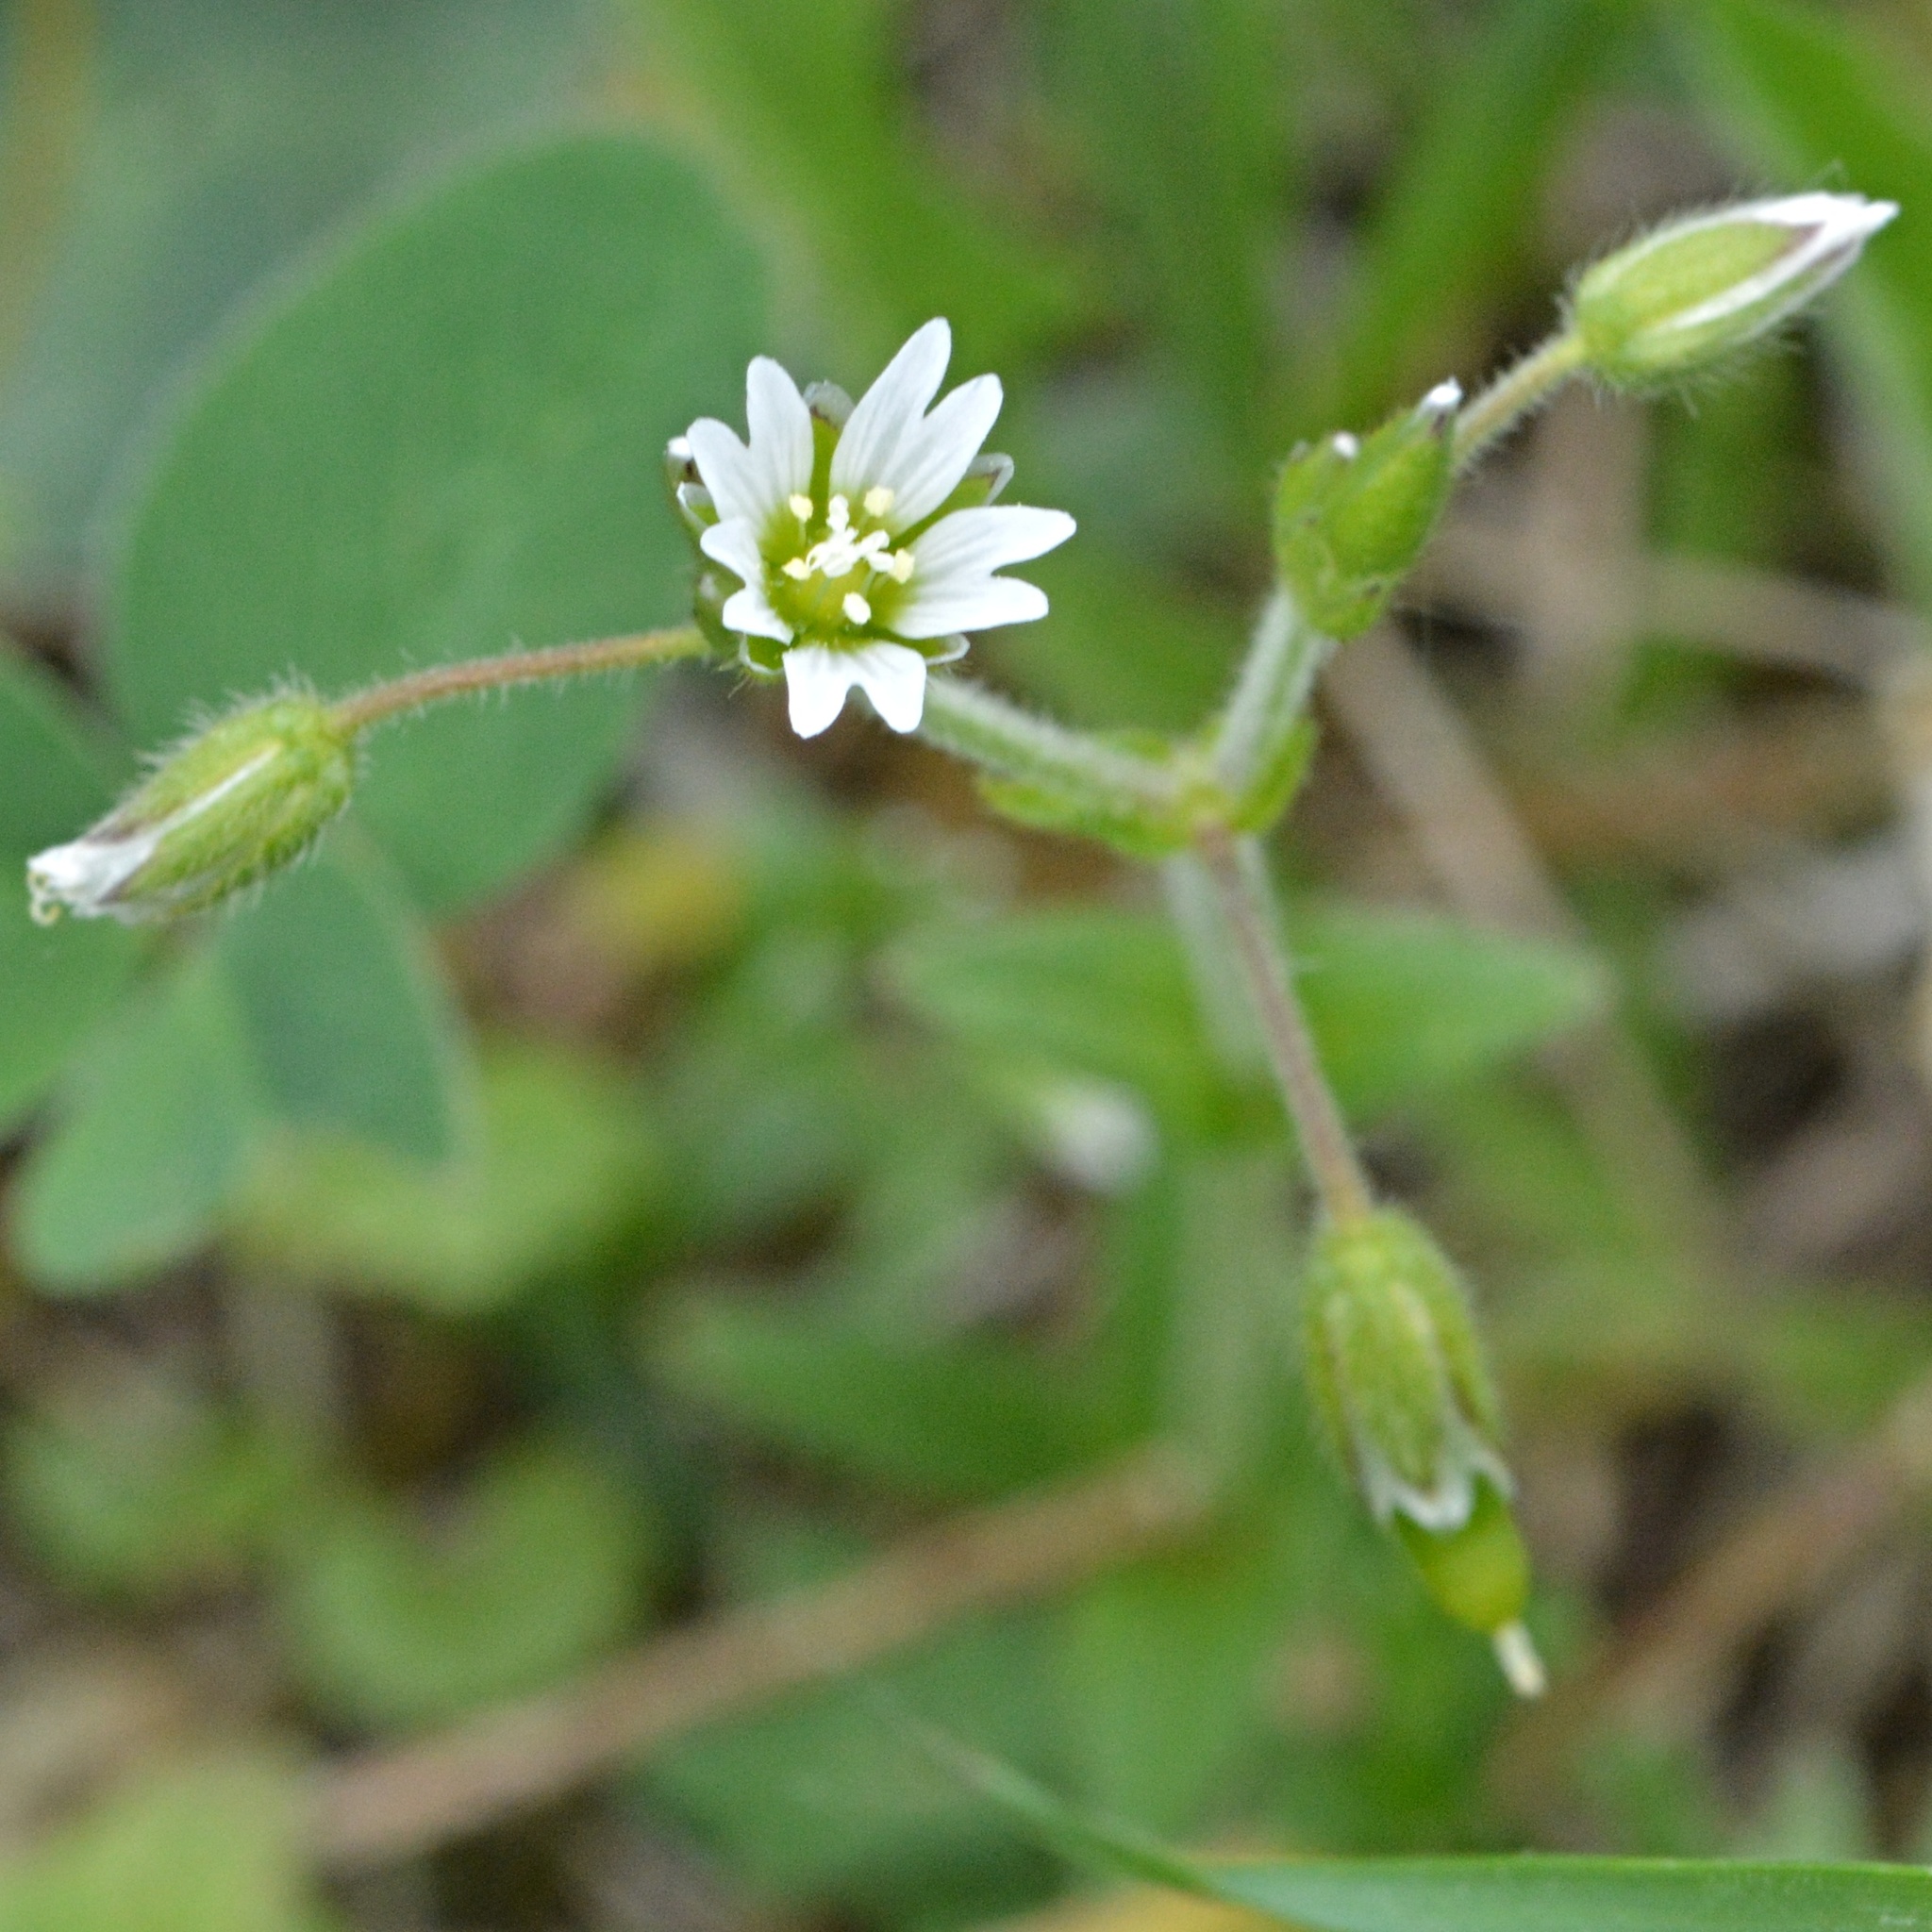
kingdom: Plantae
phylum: Tracheophyta
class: Magnoliopsida
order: Caryophyllales
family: Caryophyllaceae
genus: Cerastium
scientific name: Cerastium holosteoides
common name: Big chickweed
